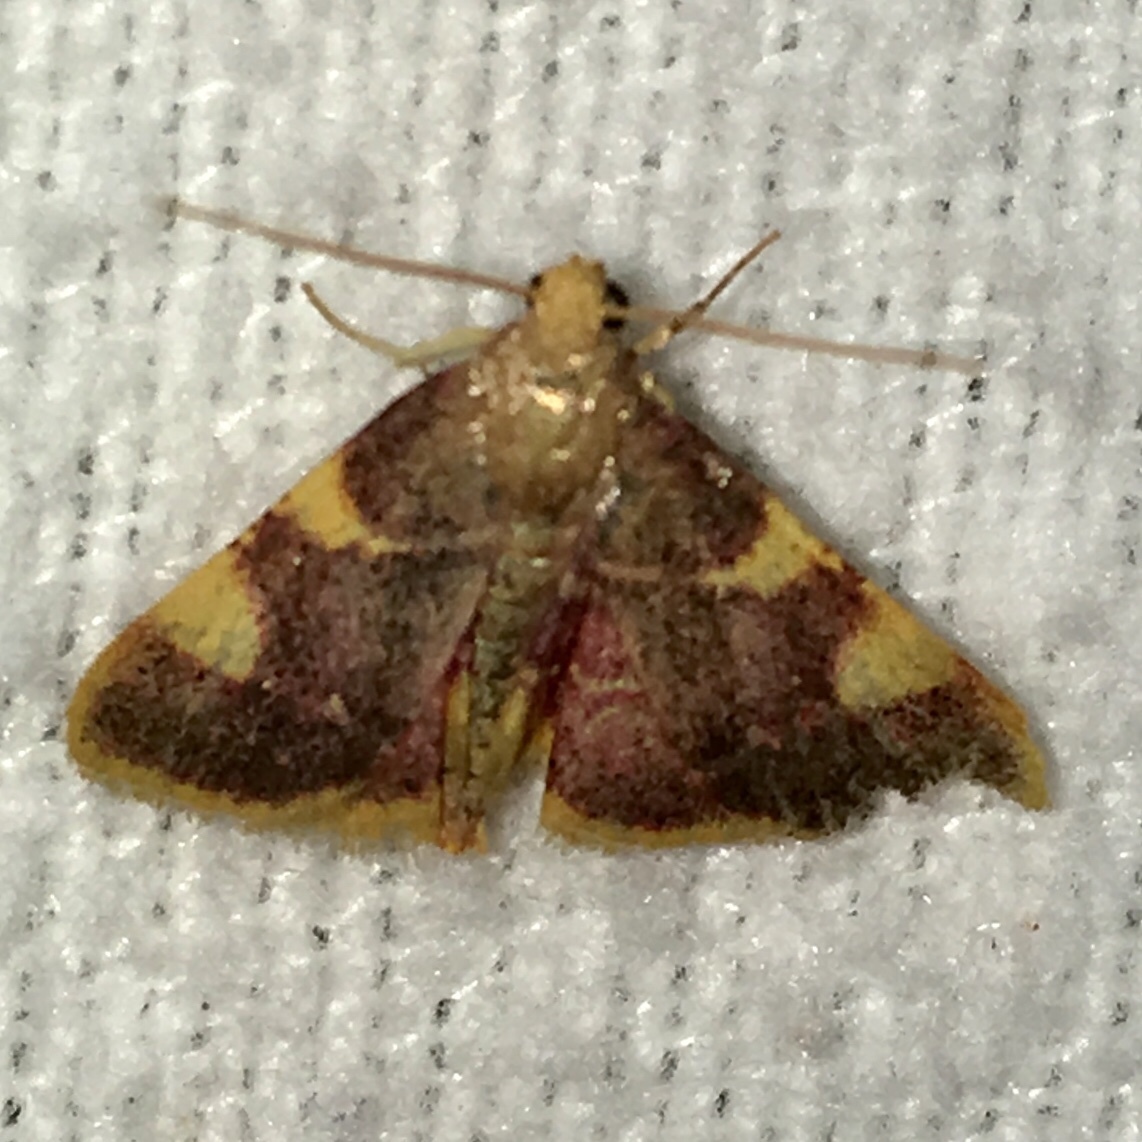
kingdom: Animalia
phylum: Arthropoda
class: Insecta
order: Lepidoptera
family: Pyralidae
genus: Hypsopygia
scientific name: Hypsopygia costalis
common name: Gold triangle
